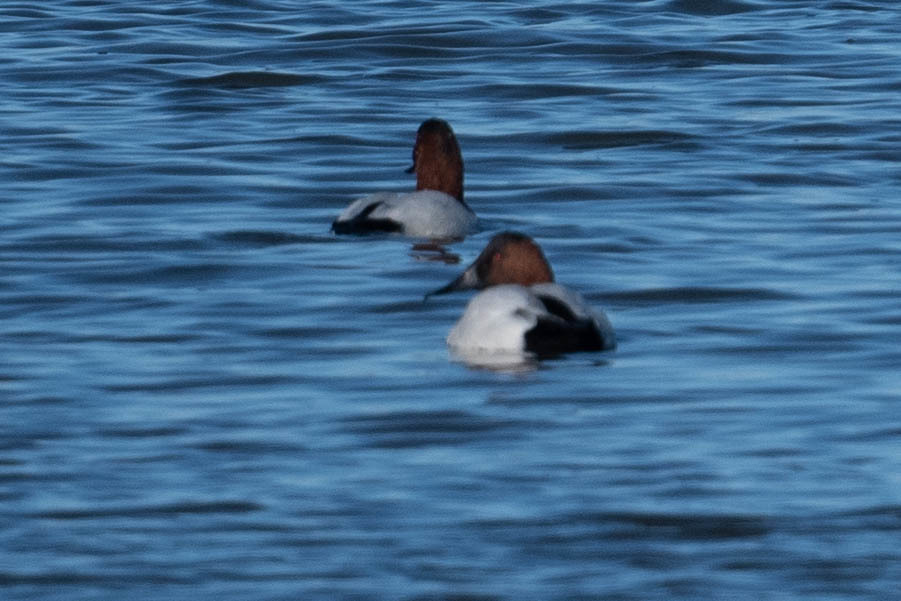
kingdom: Animalia
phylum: Chordata
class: Aves
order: Anseriformes
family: Anatidae
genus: Aythya
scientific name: Aythya valisineria
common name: Canvasback
